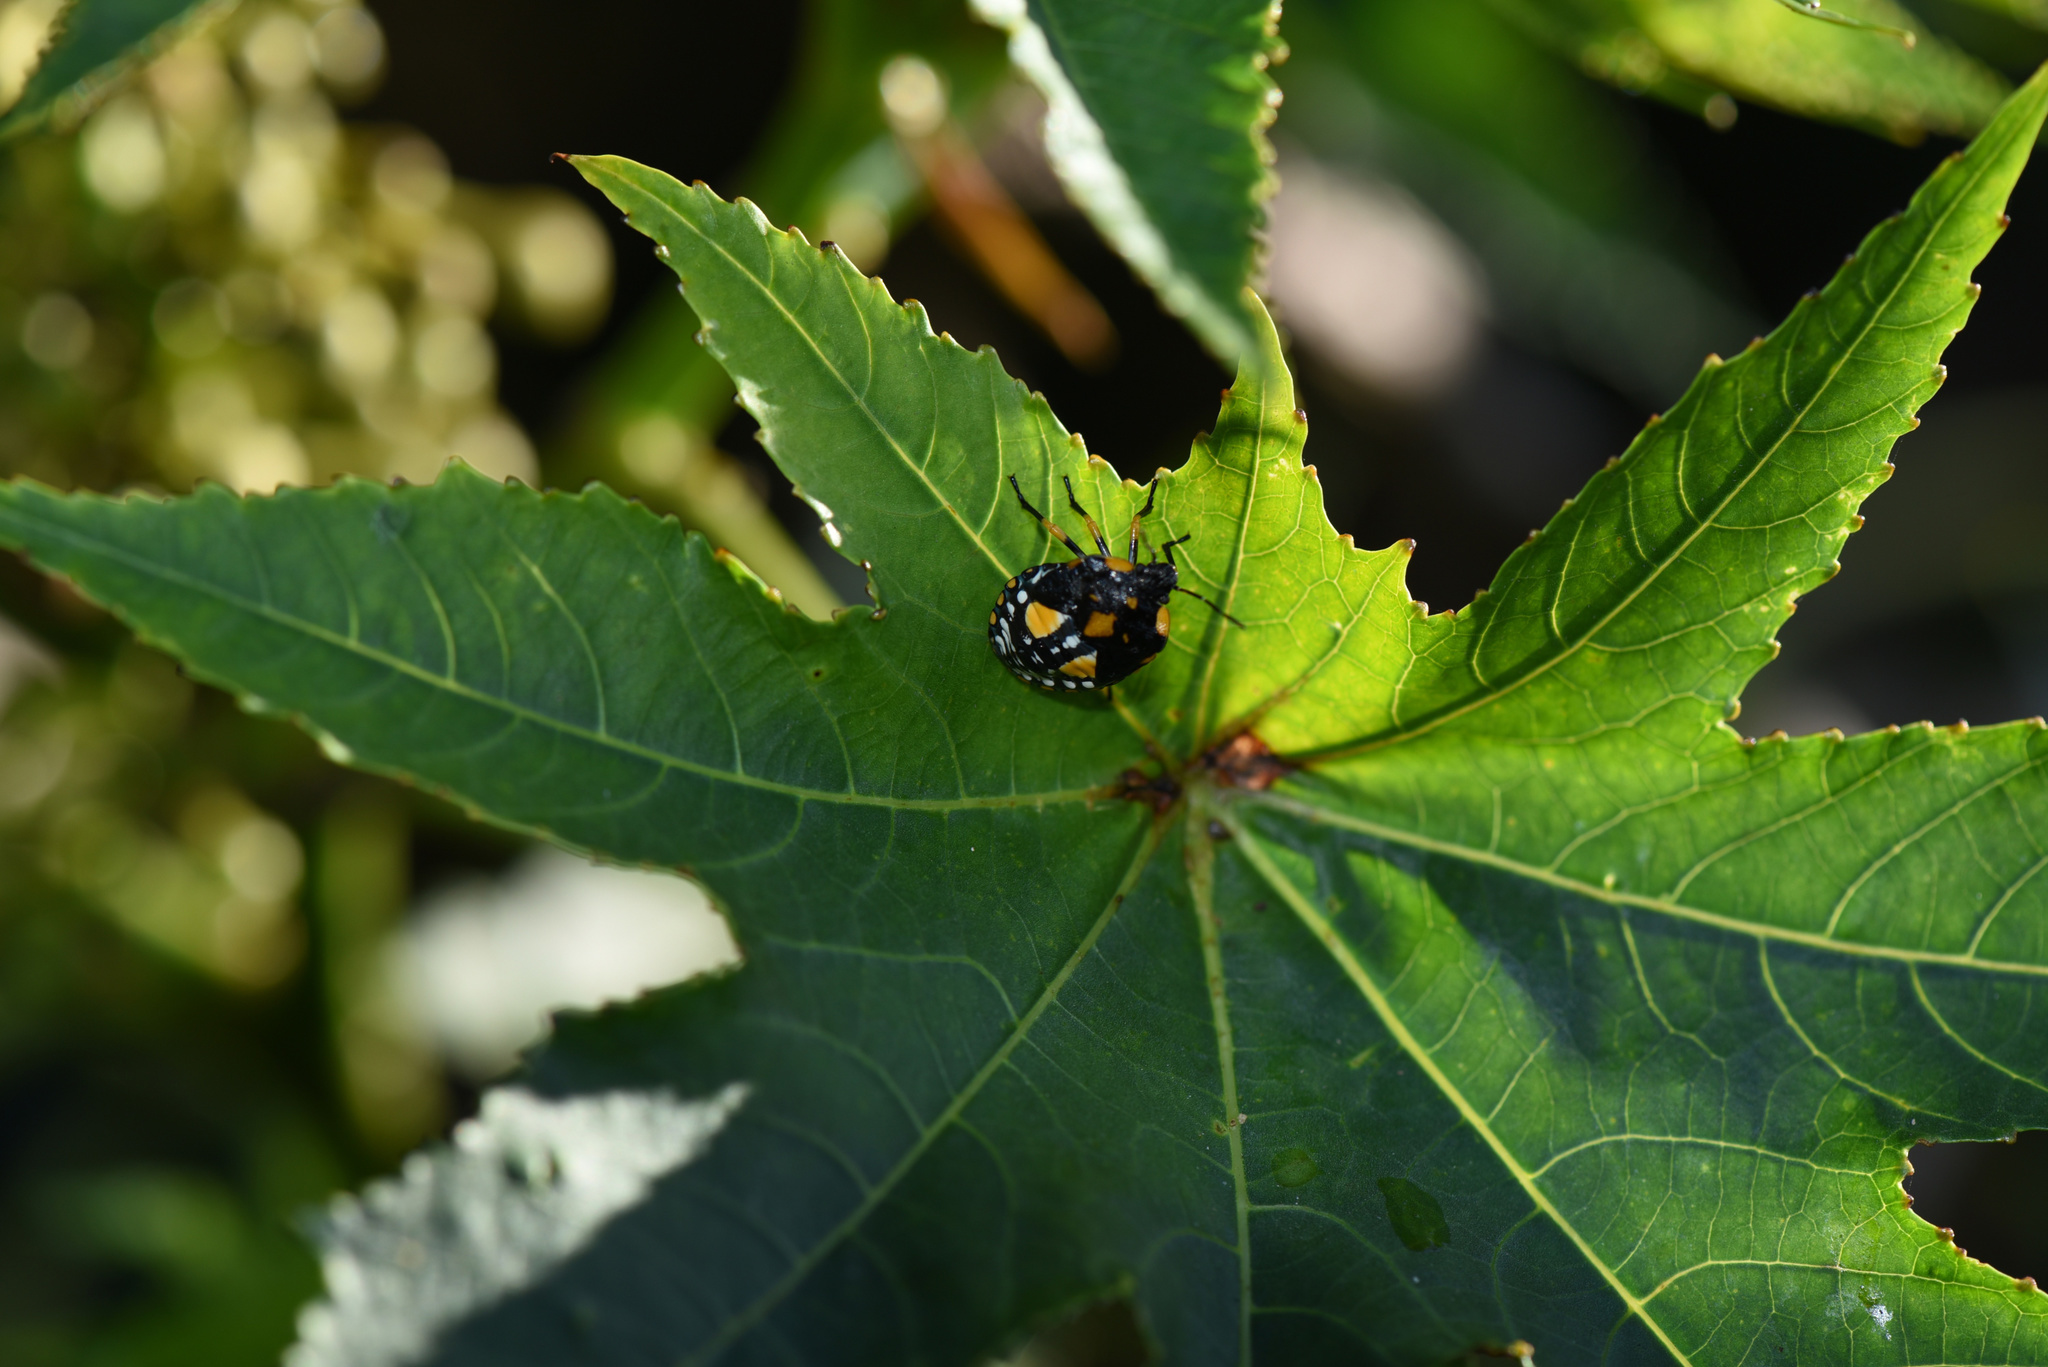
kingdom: Animalia
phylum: Arthropoda
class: Insecta
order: Hemiptera
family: Pentatomidae
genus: Chinavia
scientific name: Chinavia
